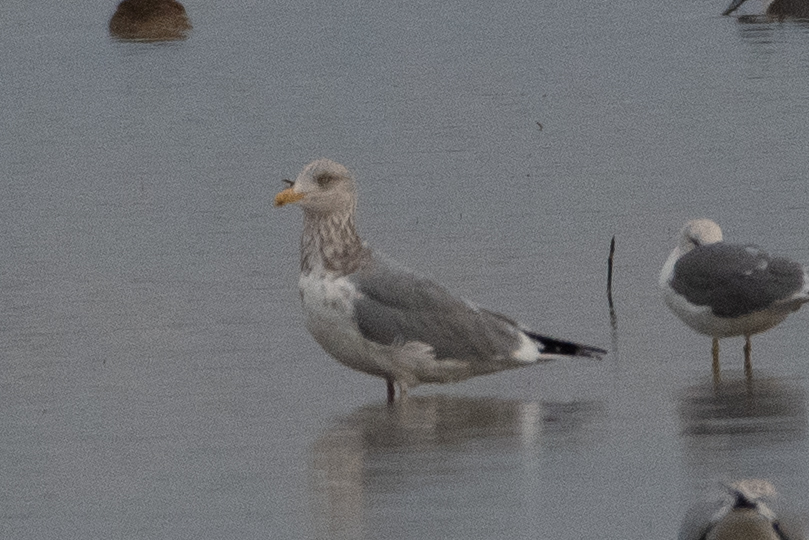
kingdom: Animalia
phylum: Chordata
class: Aves
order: Charadriiformes
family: Laridae
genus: Larus
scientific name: Larus argentatus
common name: Herring gull
